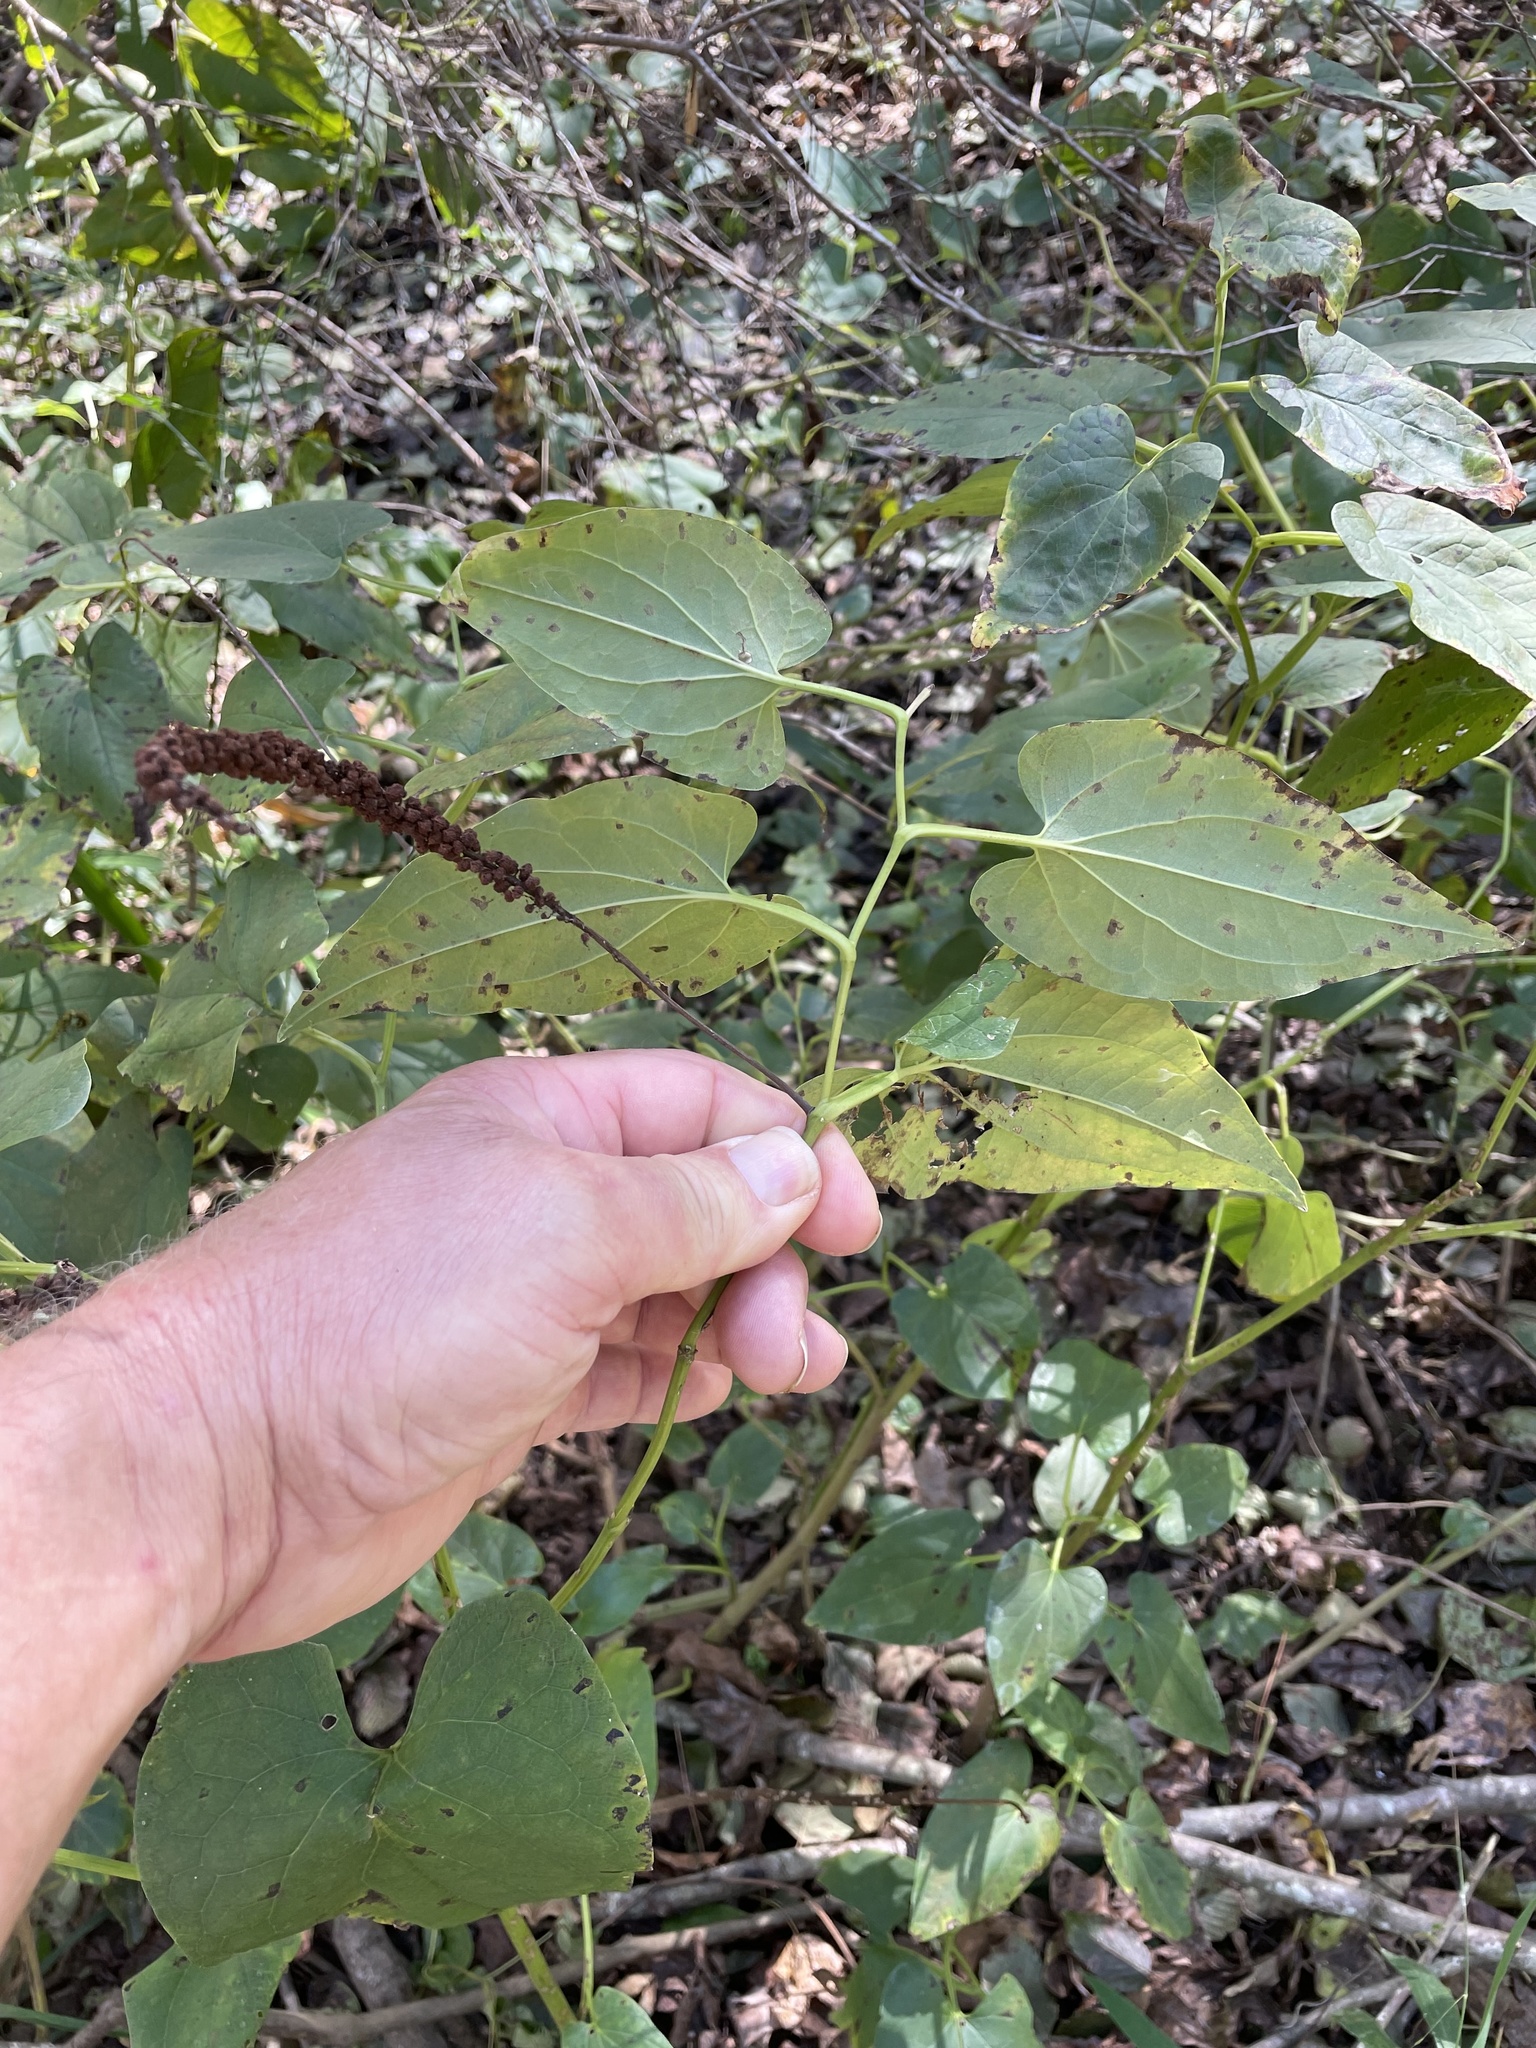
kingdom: Plantae
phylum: Tracheophyta
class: Magnoliopsida
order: Piperales
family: Saururaceae
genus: Saururus
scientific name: Saururus cernuus
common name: Lizard's-tail
